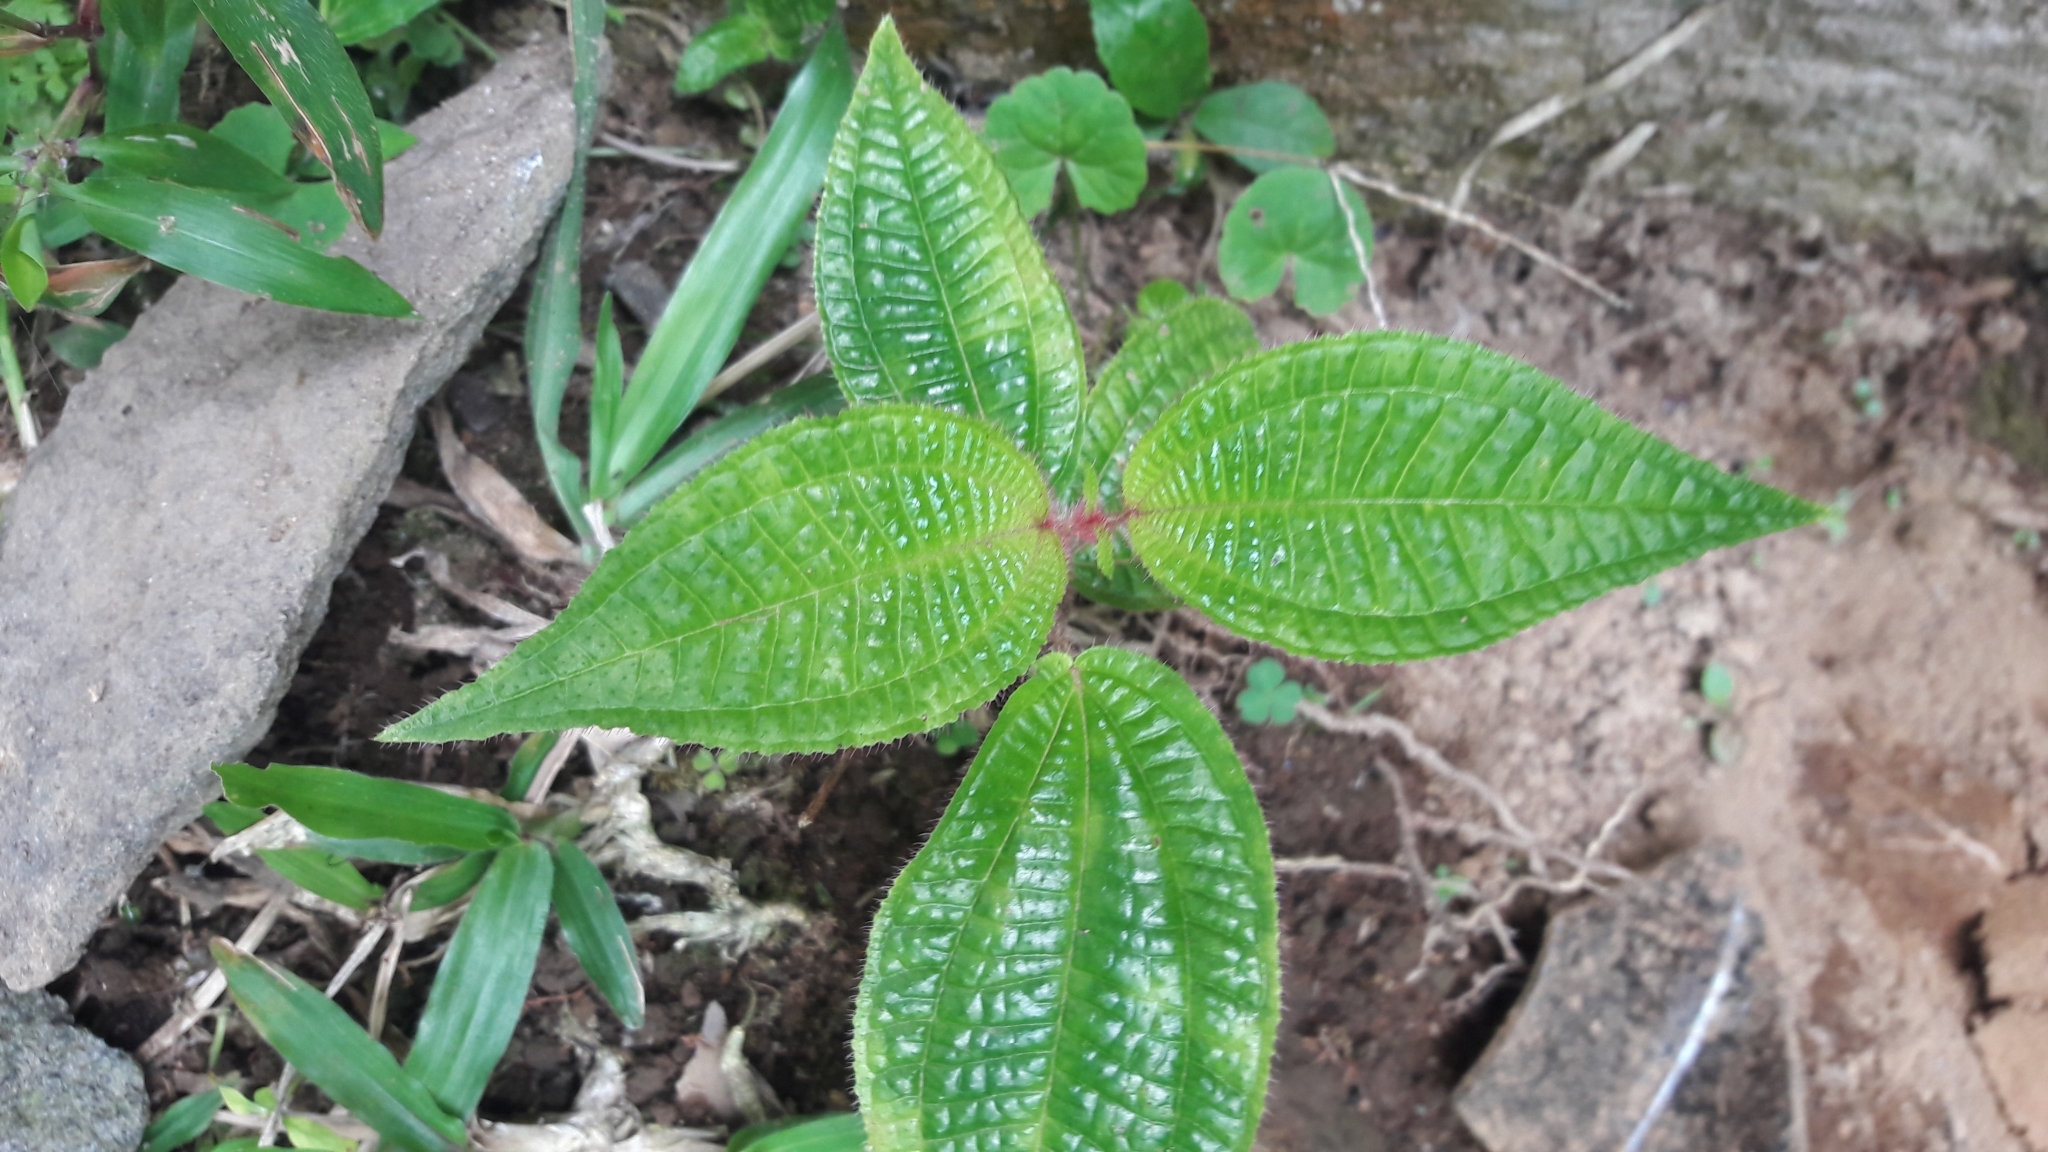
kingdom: Plantae
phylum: Tracheophyta
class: Magnoliopsida
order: Myrtales
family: Melastomataceae
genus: Miconia
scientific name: Miconia crenata
